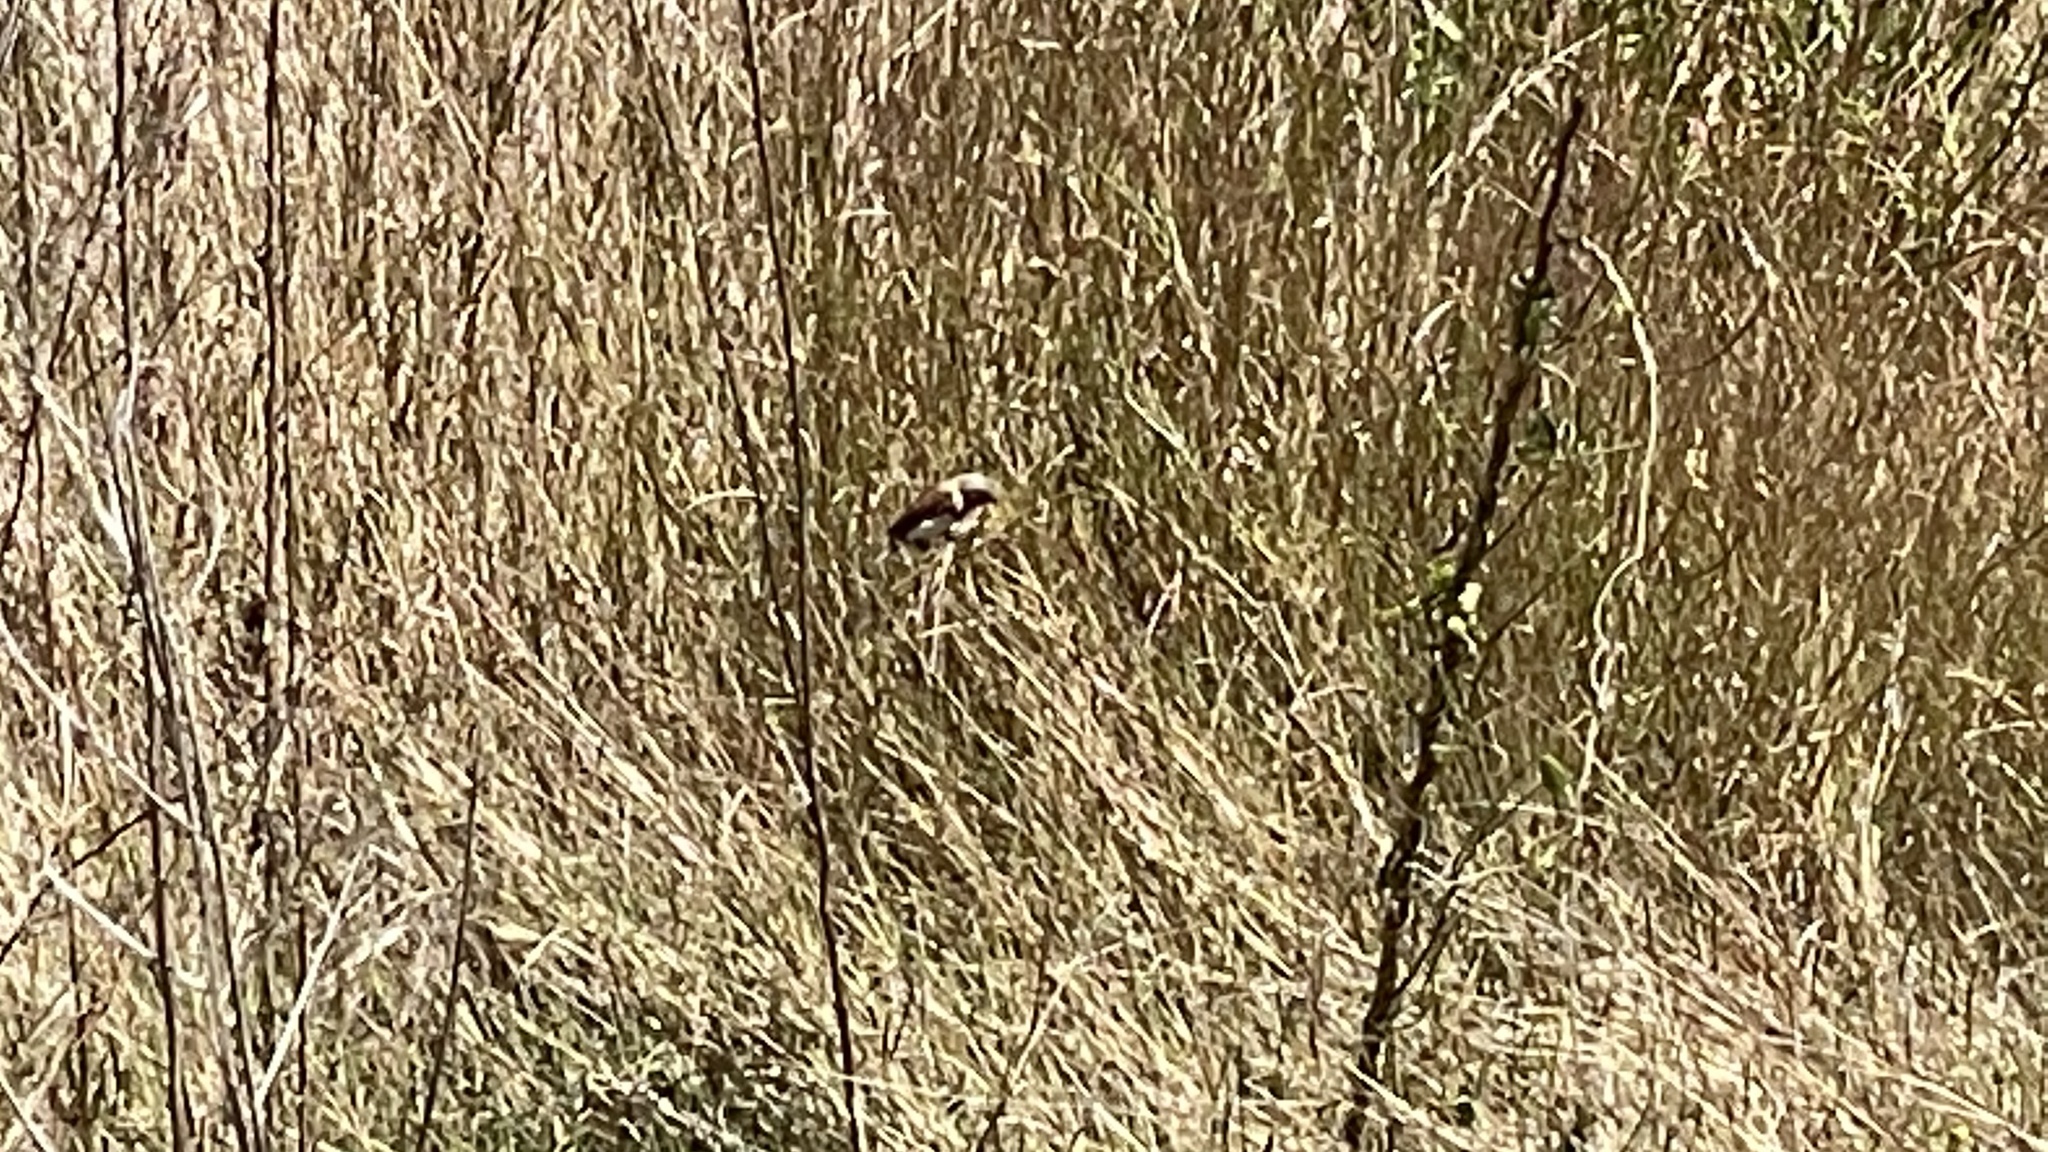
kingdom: Animalia
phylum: Chordata
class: Aves
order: Passeriformes
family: Estrildidae
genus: Lonchura
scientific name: Lonchura castaneothorax
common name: Chestnut-breasted mannikin
